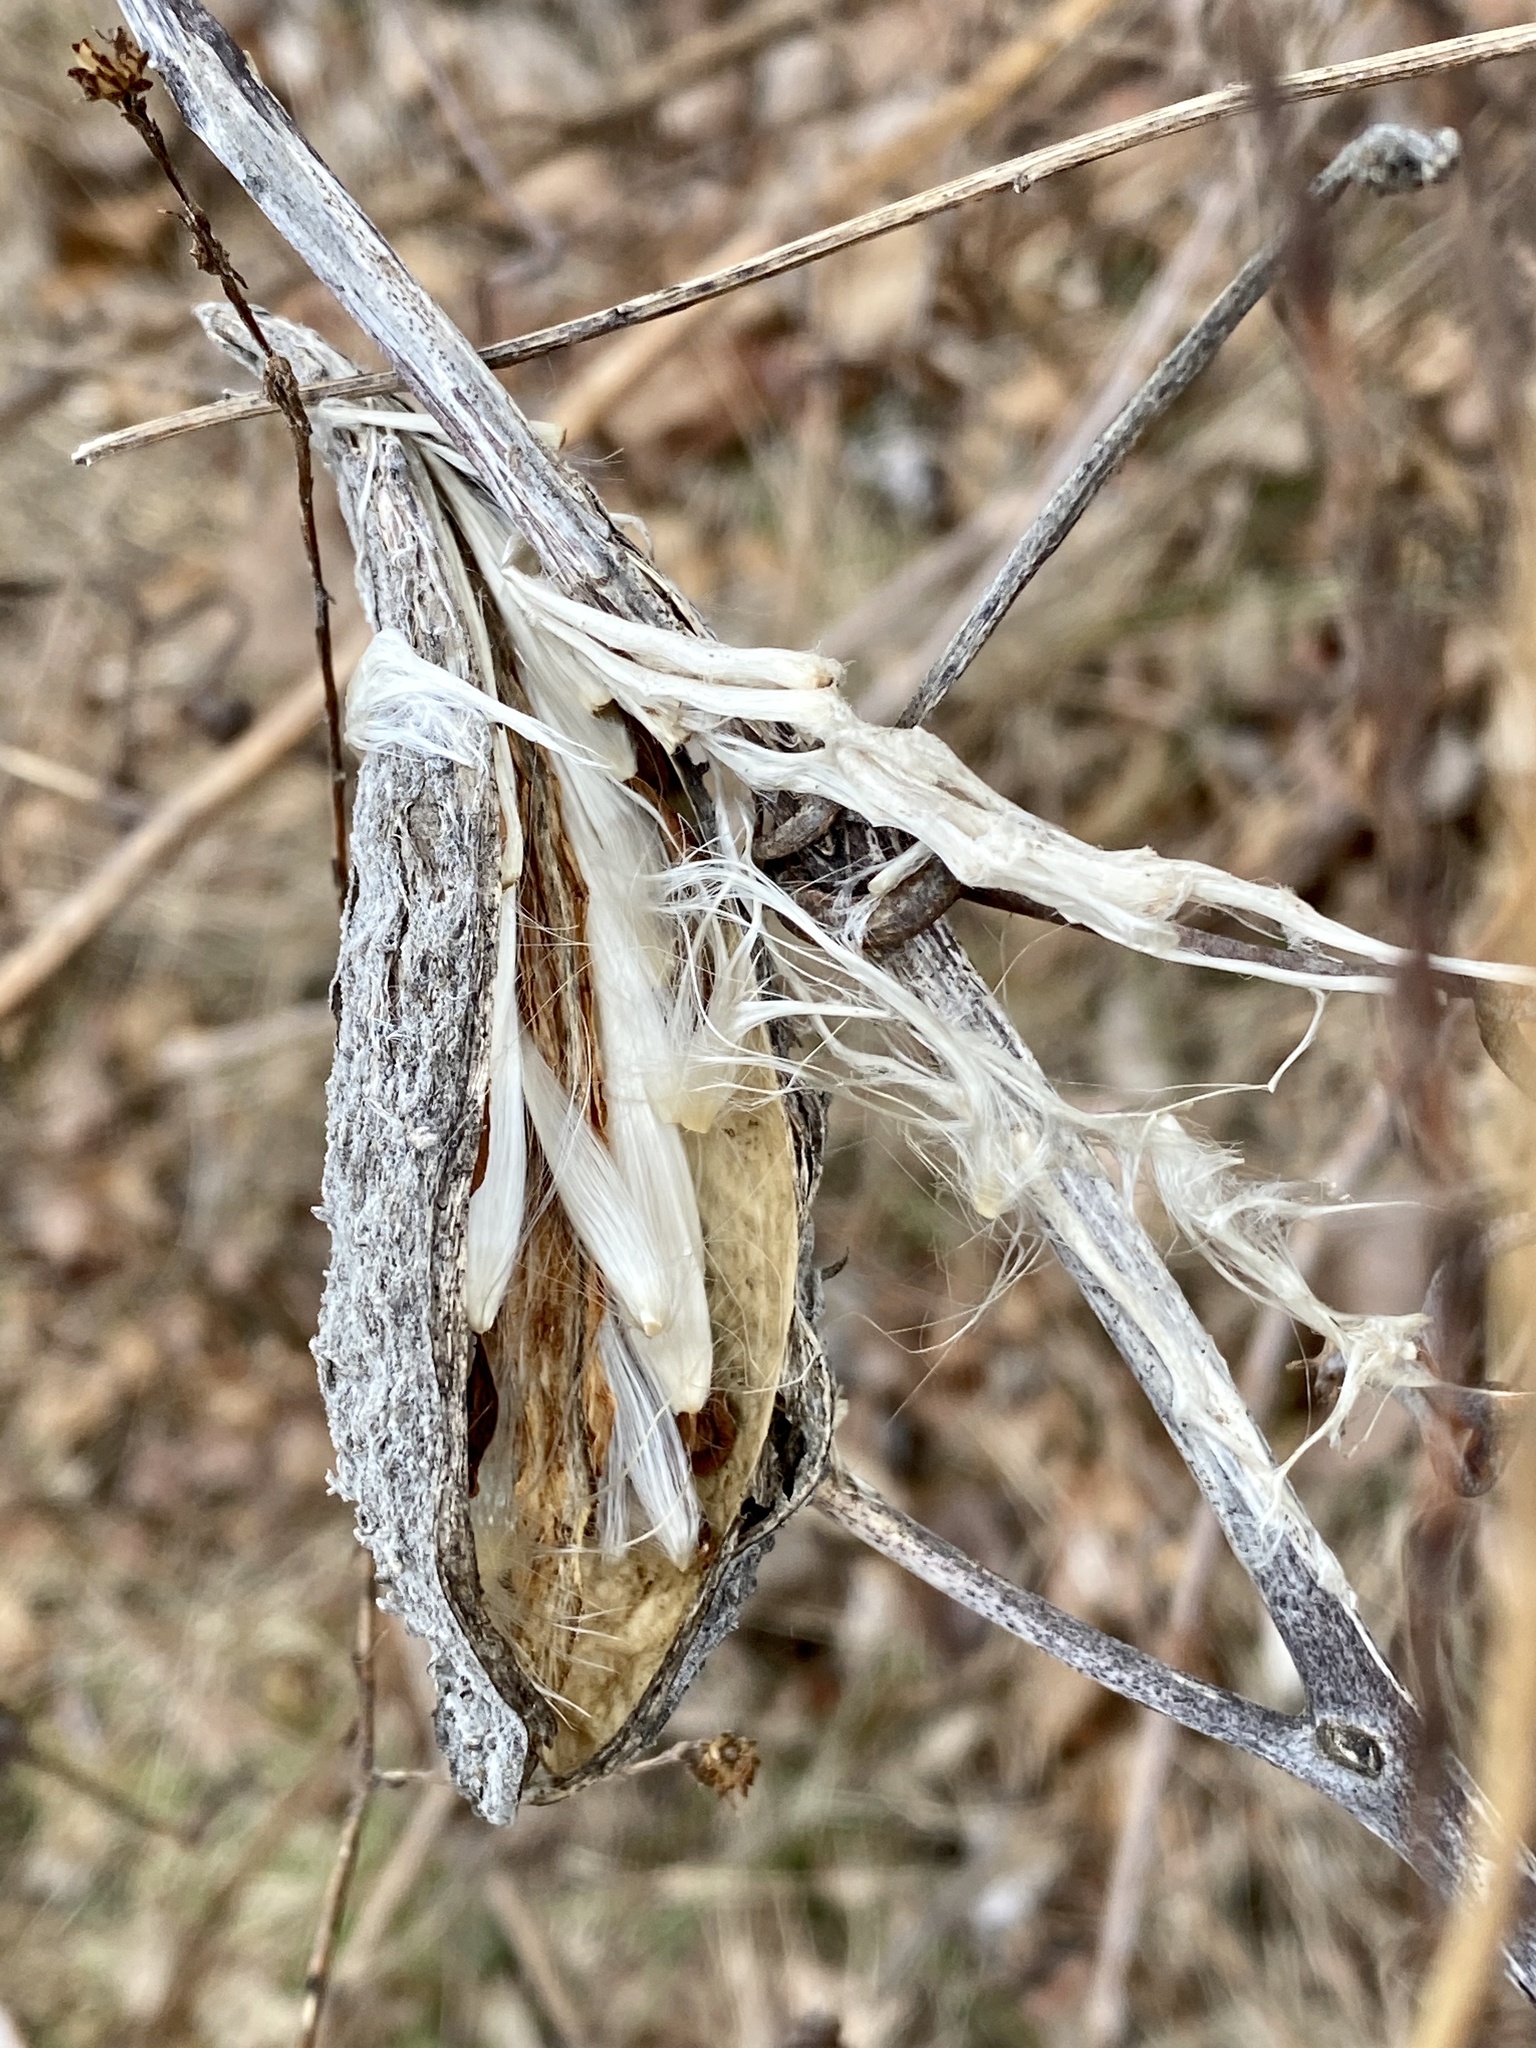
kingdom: Plantae
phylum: Tracheophyta
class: Magnoliopsida
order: Gentianales
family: Apocynaceae
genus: Asclepias
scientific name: Asclepias syriaca
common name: Common milkweed
